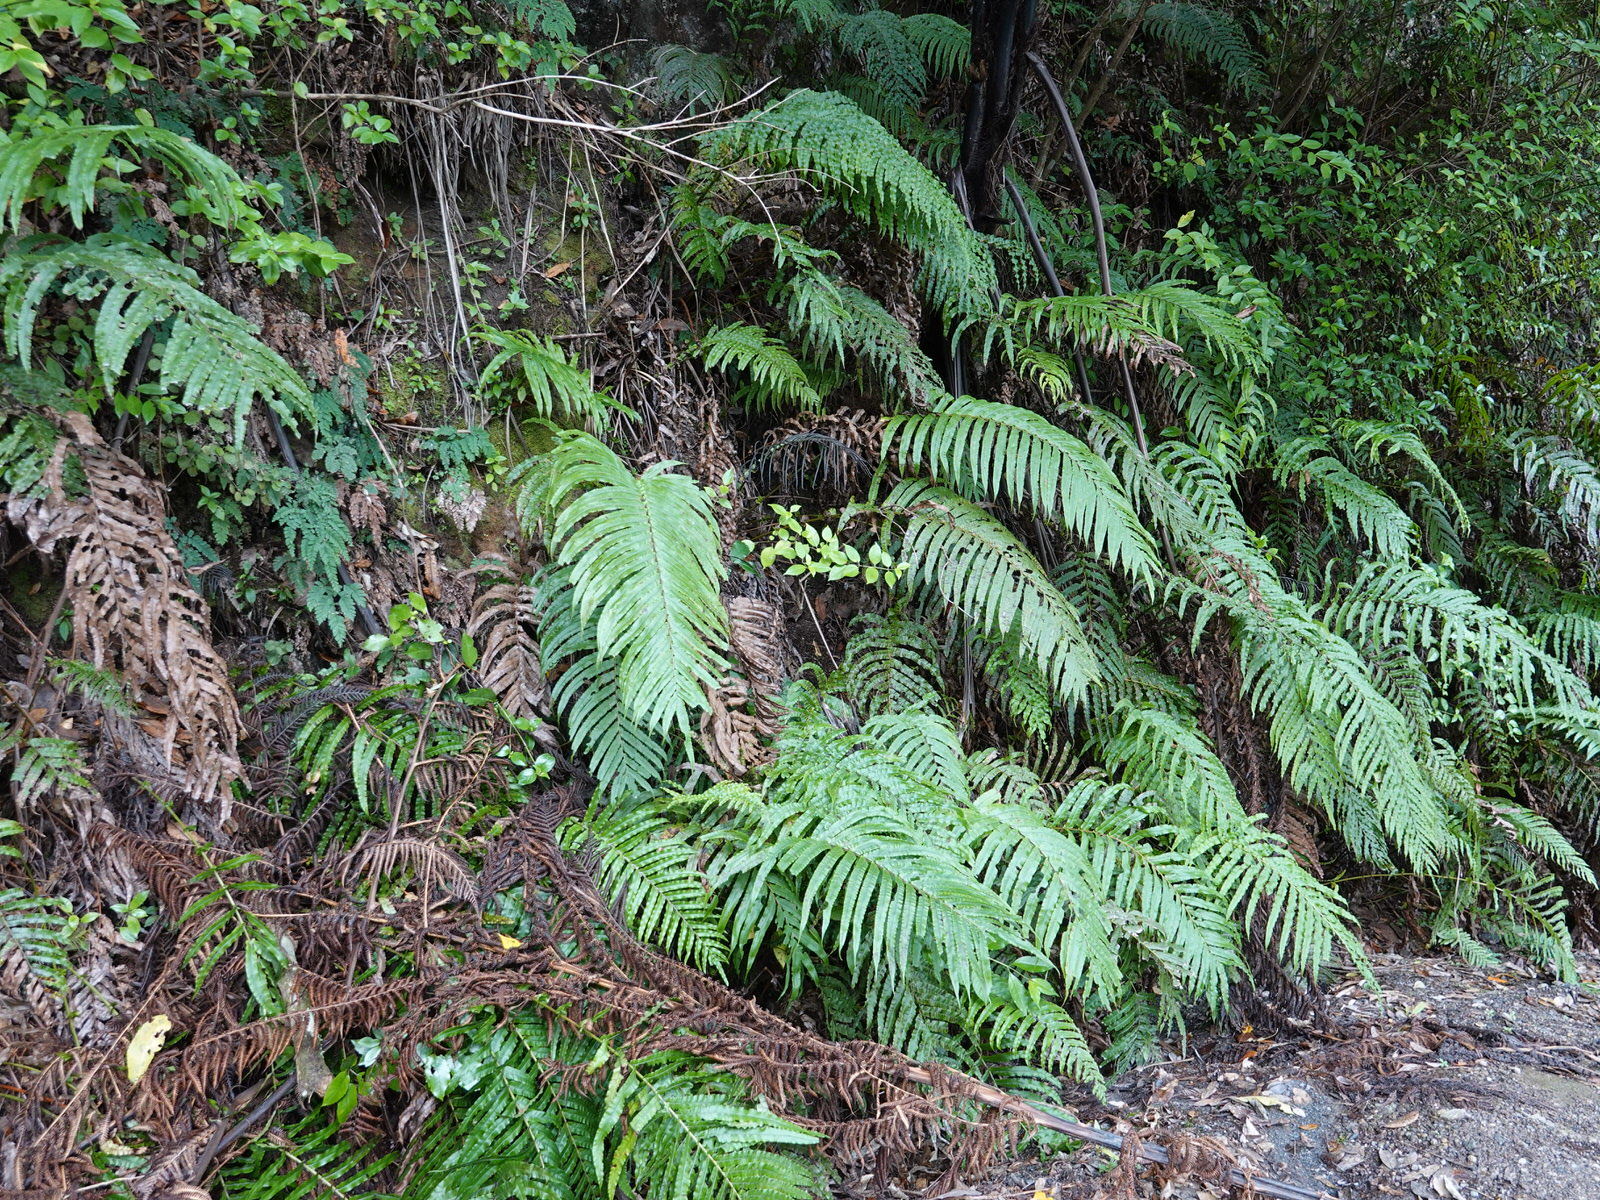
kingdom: Animalia
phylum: Chordata
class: Aves
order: Passeriformes
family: Prunellidae
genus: Prunella
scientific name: Prunella modularis
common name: Dunnock
